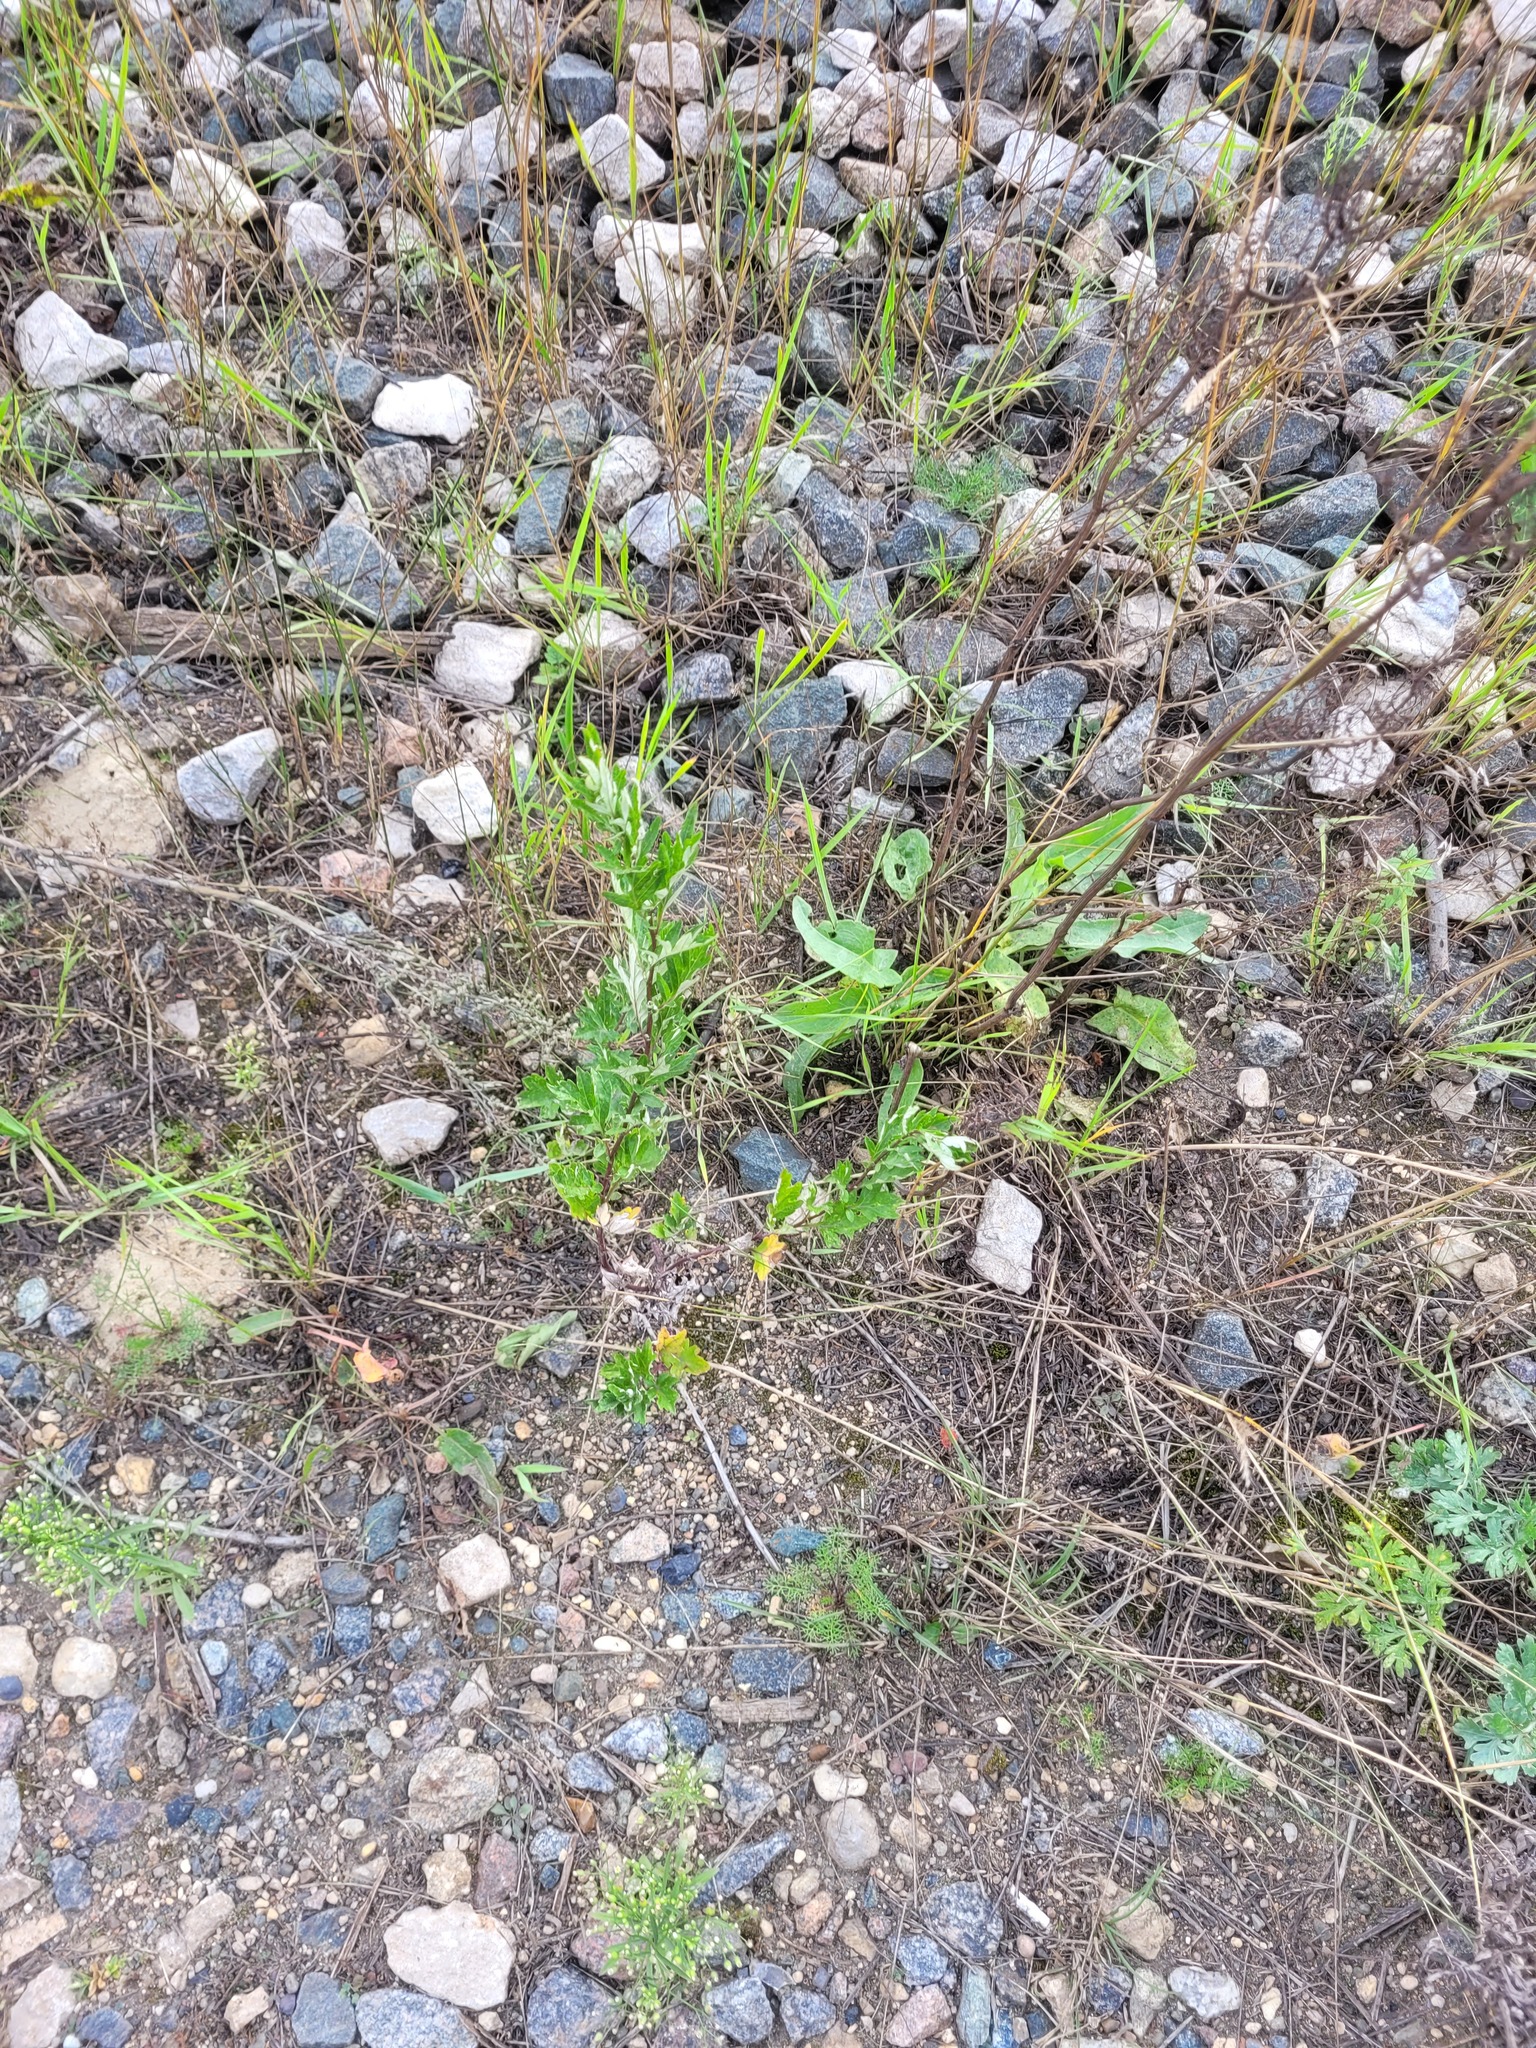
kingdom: Plantae
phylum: Tracheophyta
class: Magnoliopsida
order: Asterales
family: Asteraceae
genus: Artemisia
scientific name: Artemisia vulgaris
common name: Mugwort
